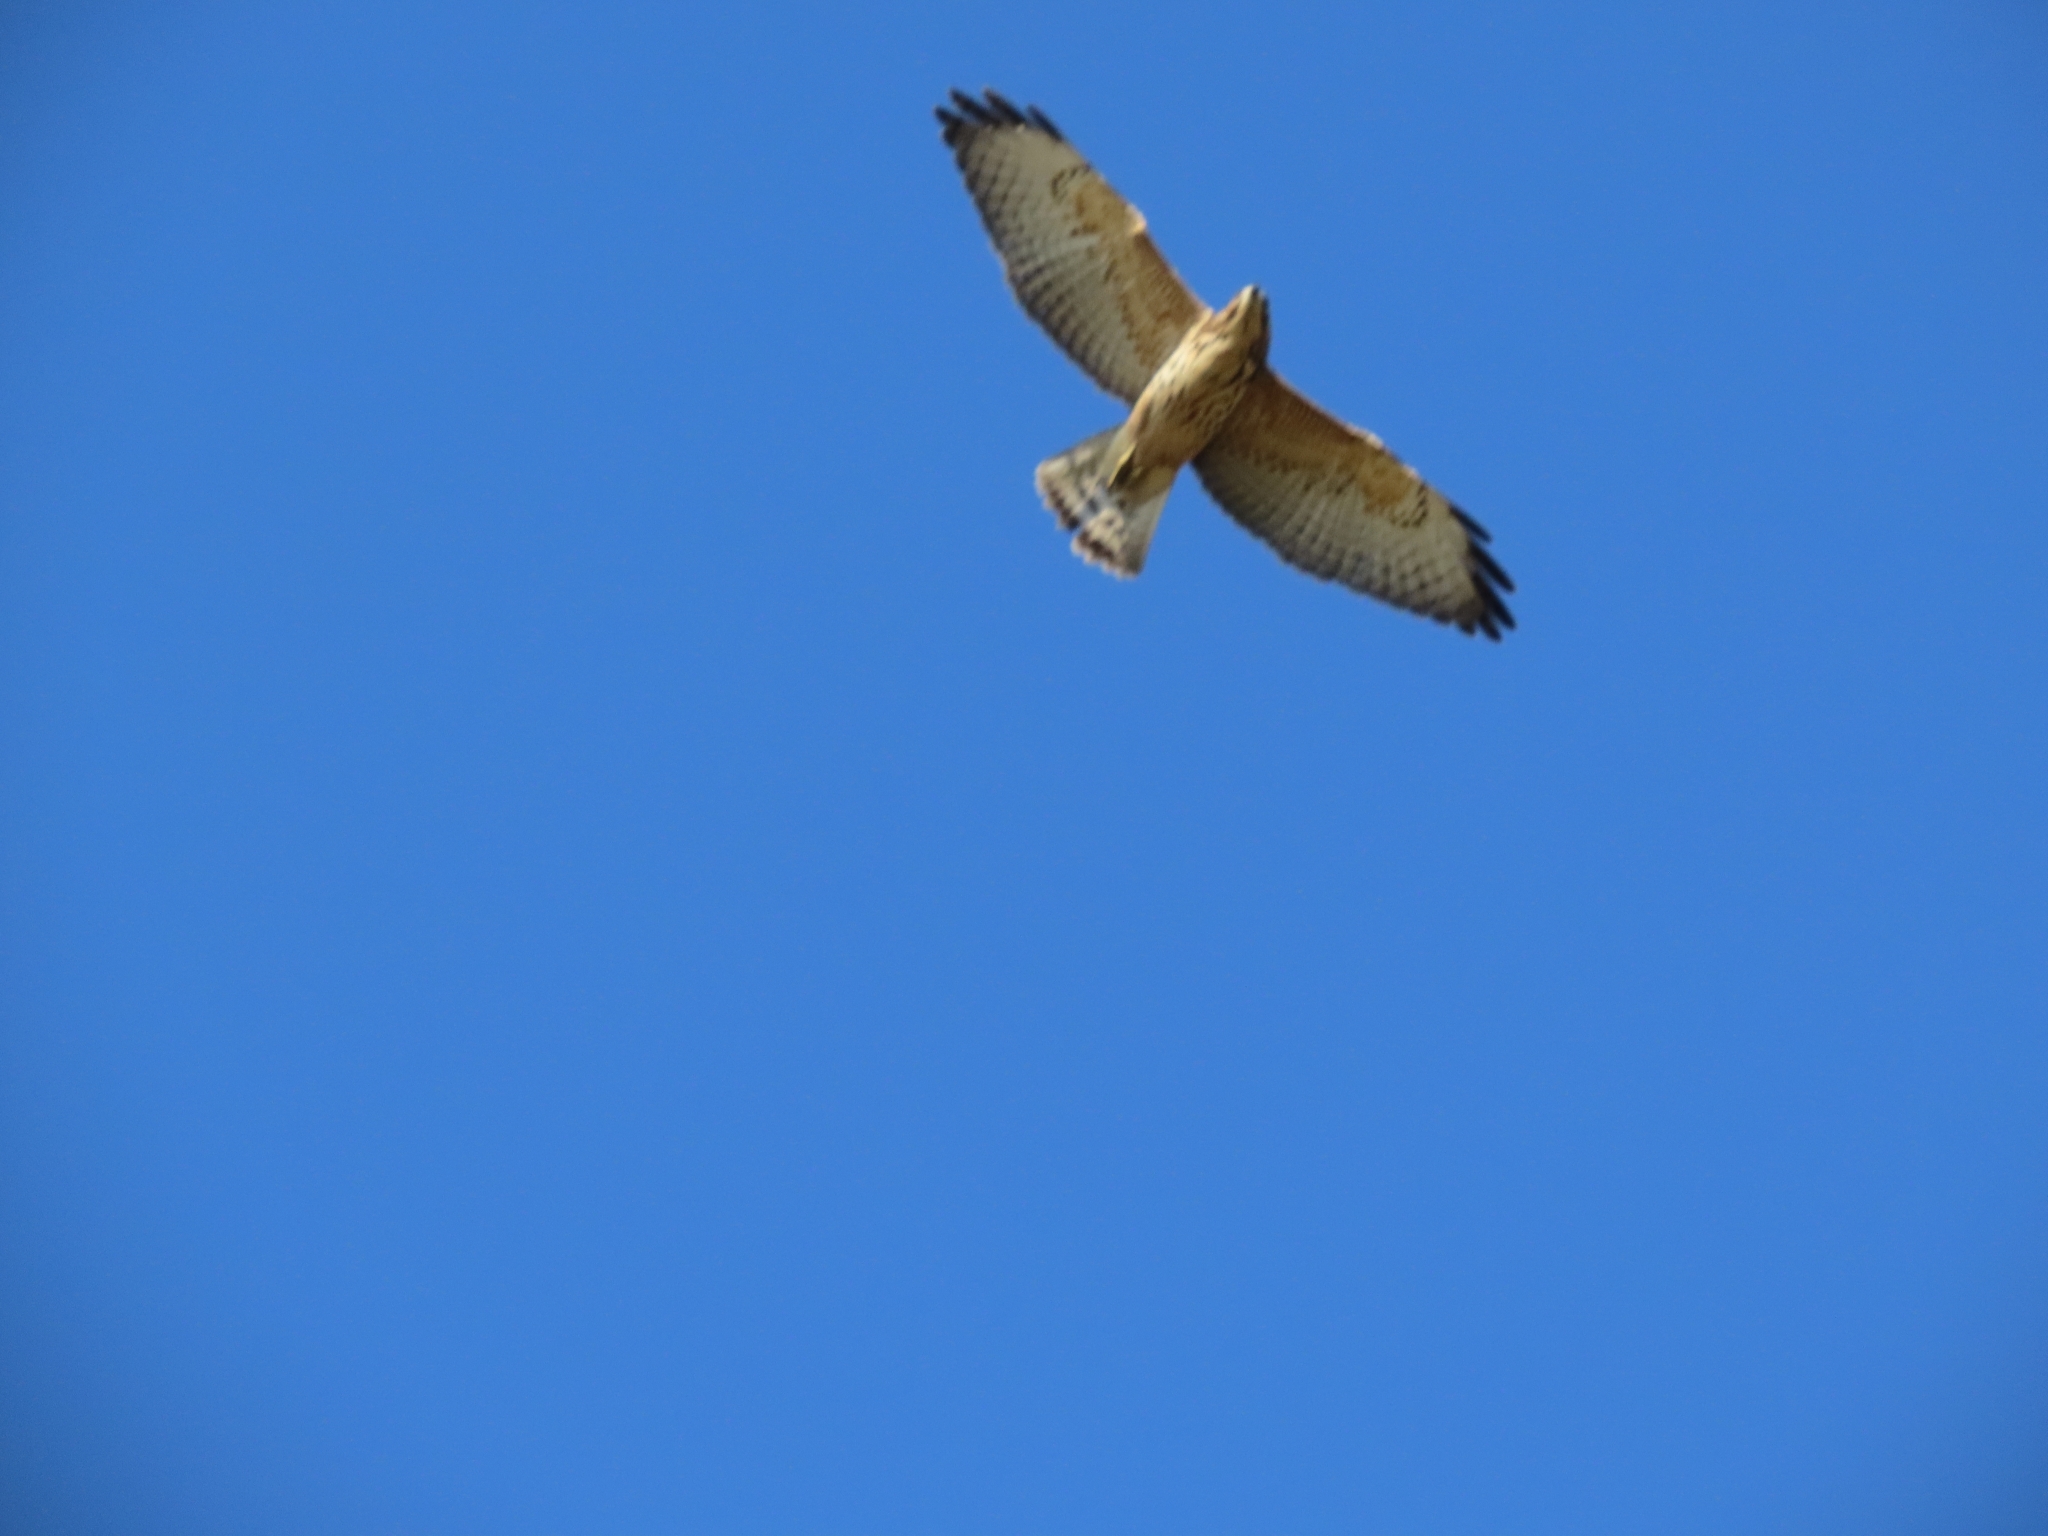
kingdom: Animalia
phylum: Chordata
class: Aves
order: Accipitriformes
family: Accipitridae
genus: Buteo
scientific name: Buteo platypterus
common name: Broad-winged hawk
